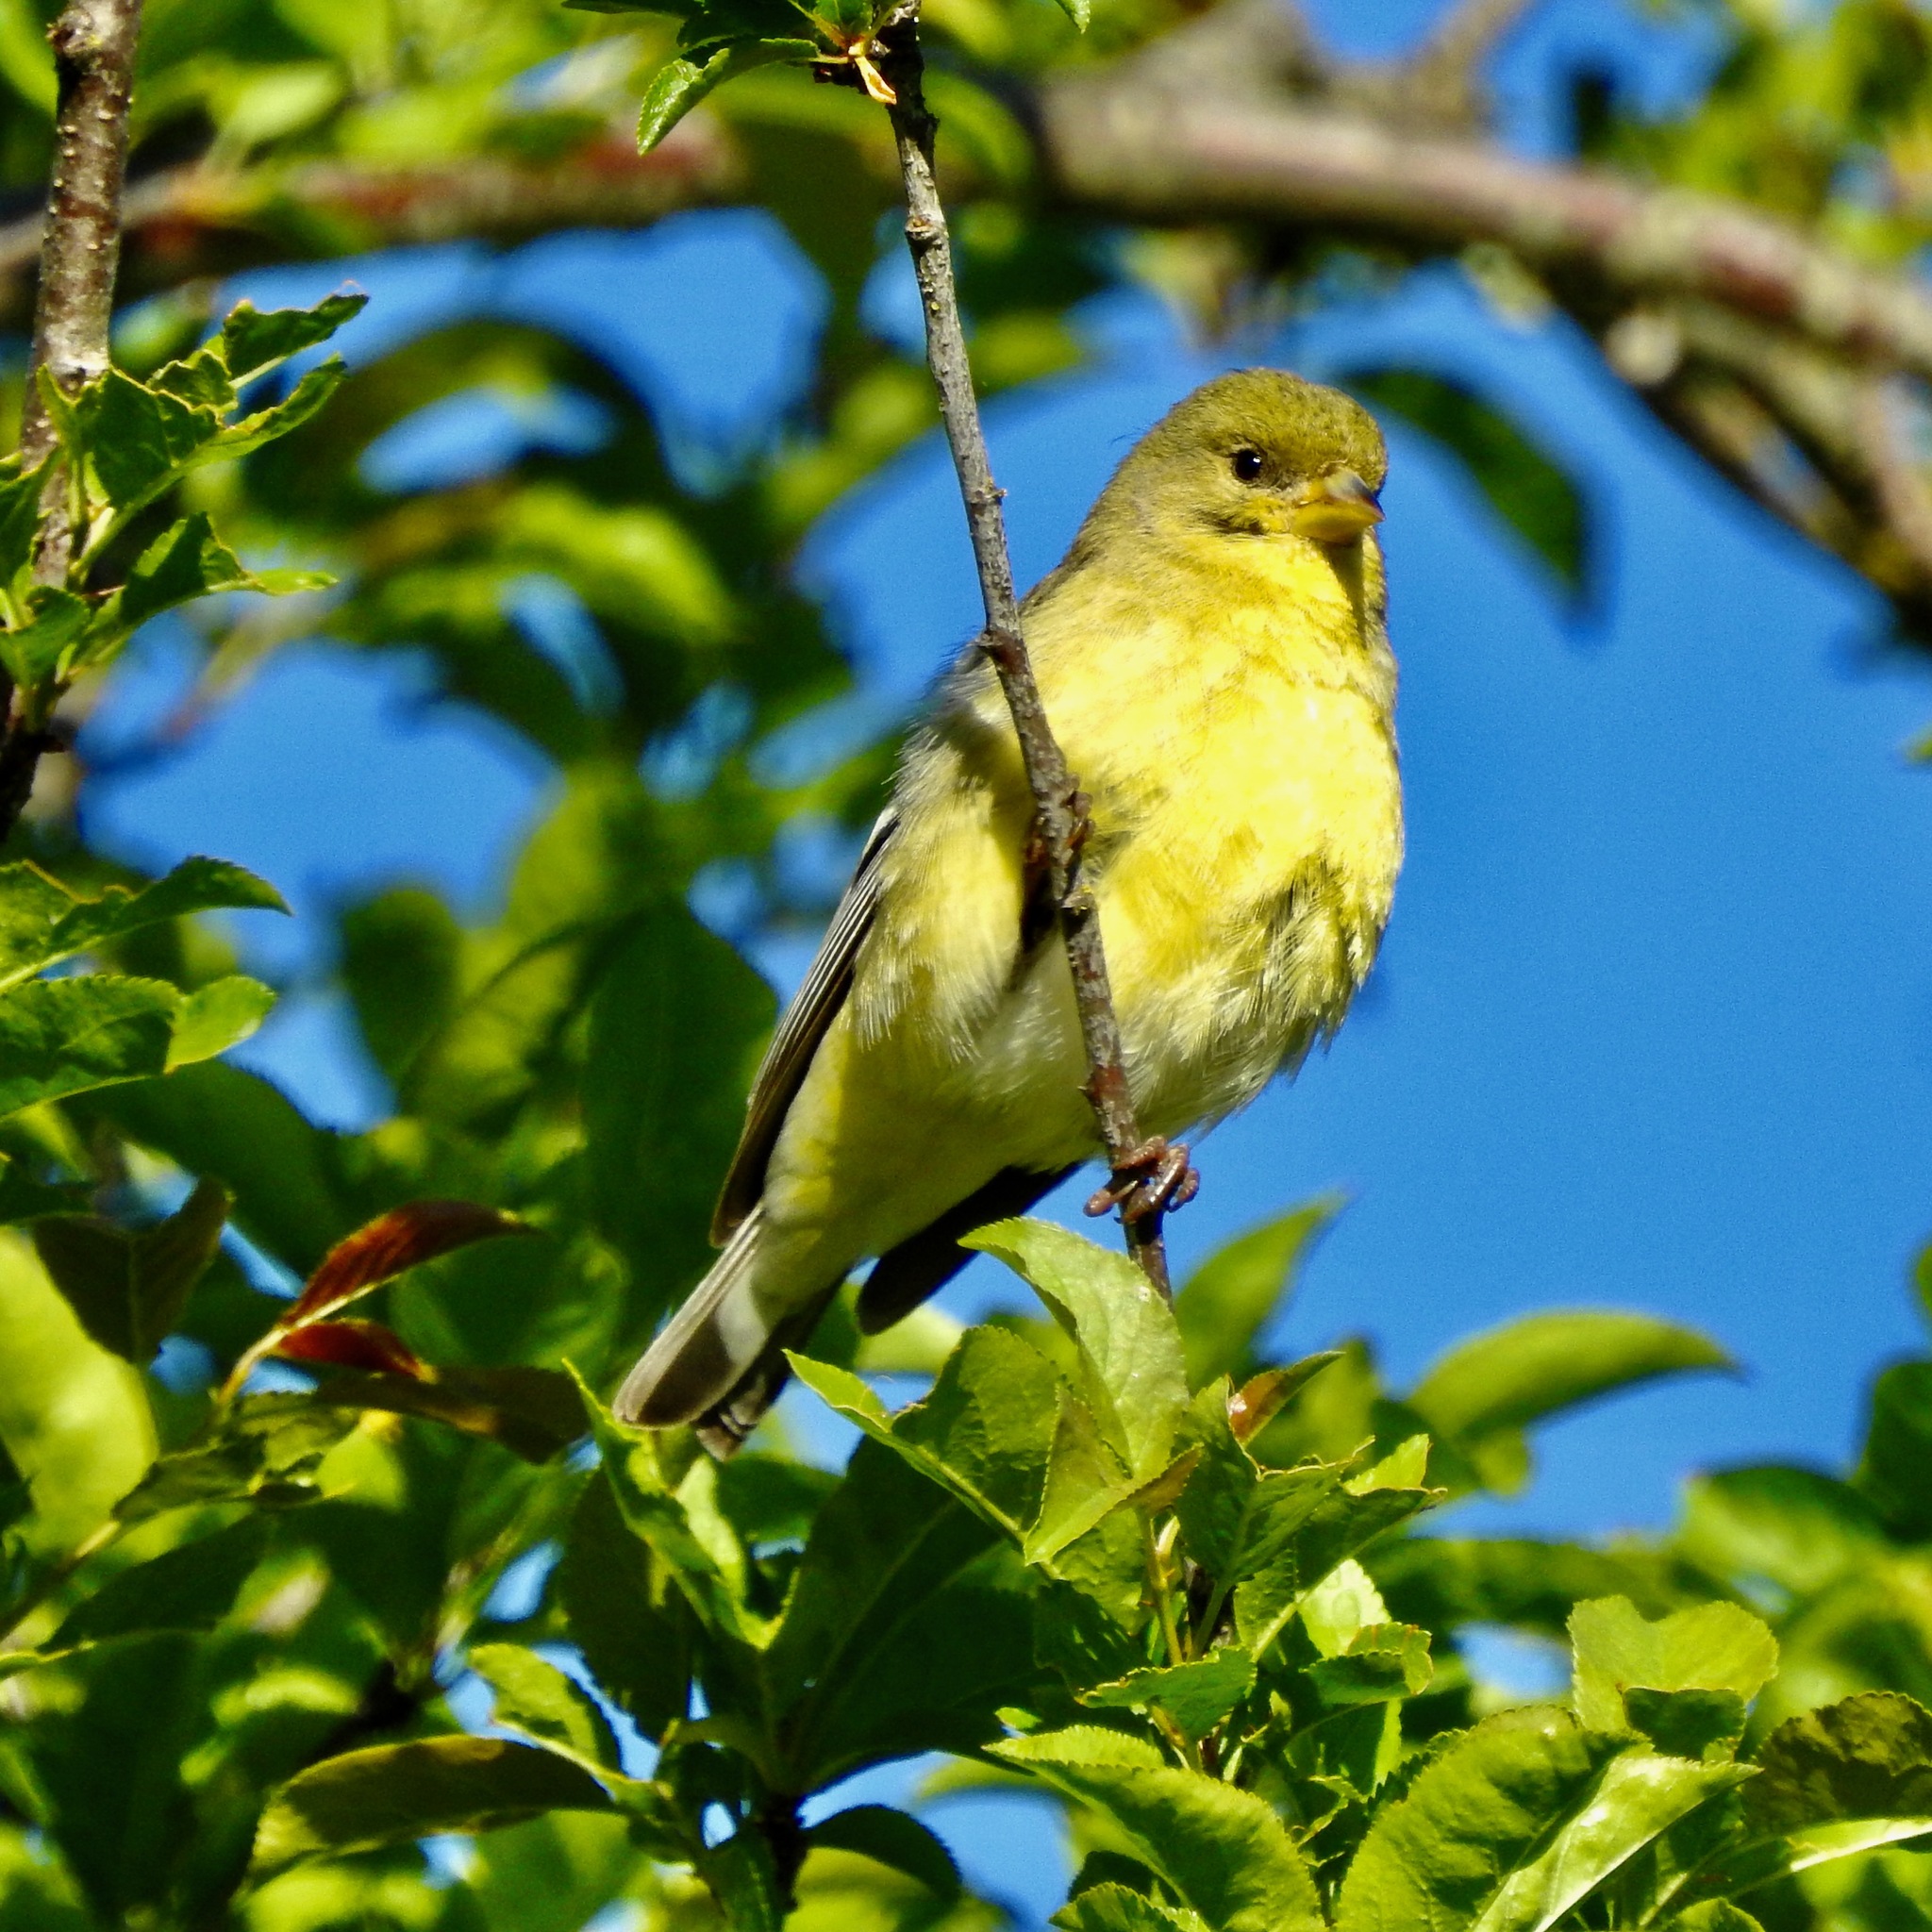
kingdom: Animalia
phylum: Chordata
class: Aves
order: Passeriformes
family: Fringillidae
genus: Spinus
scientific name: Spinus psaltria
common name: Lesser goldfinch
